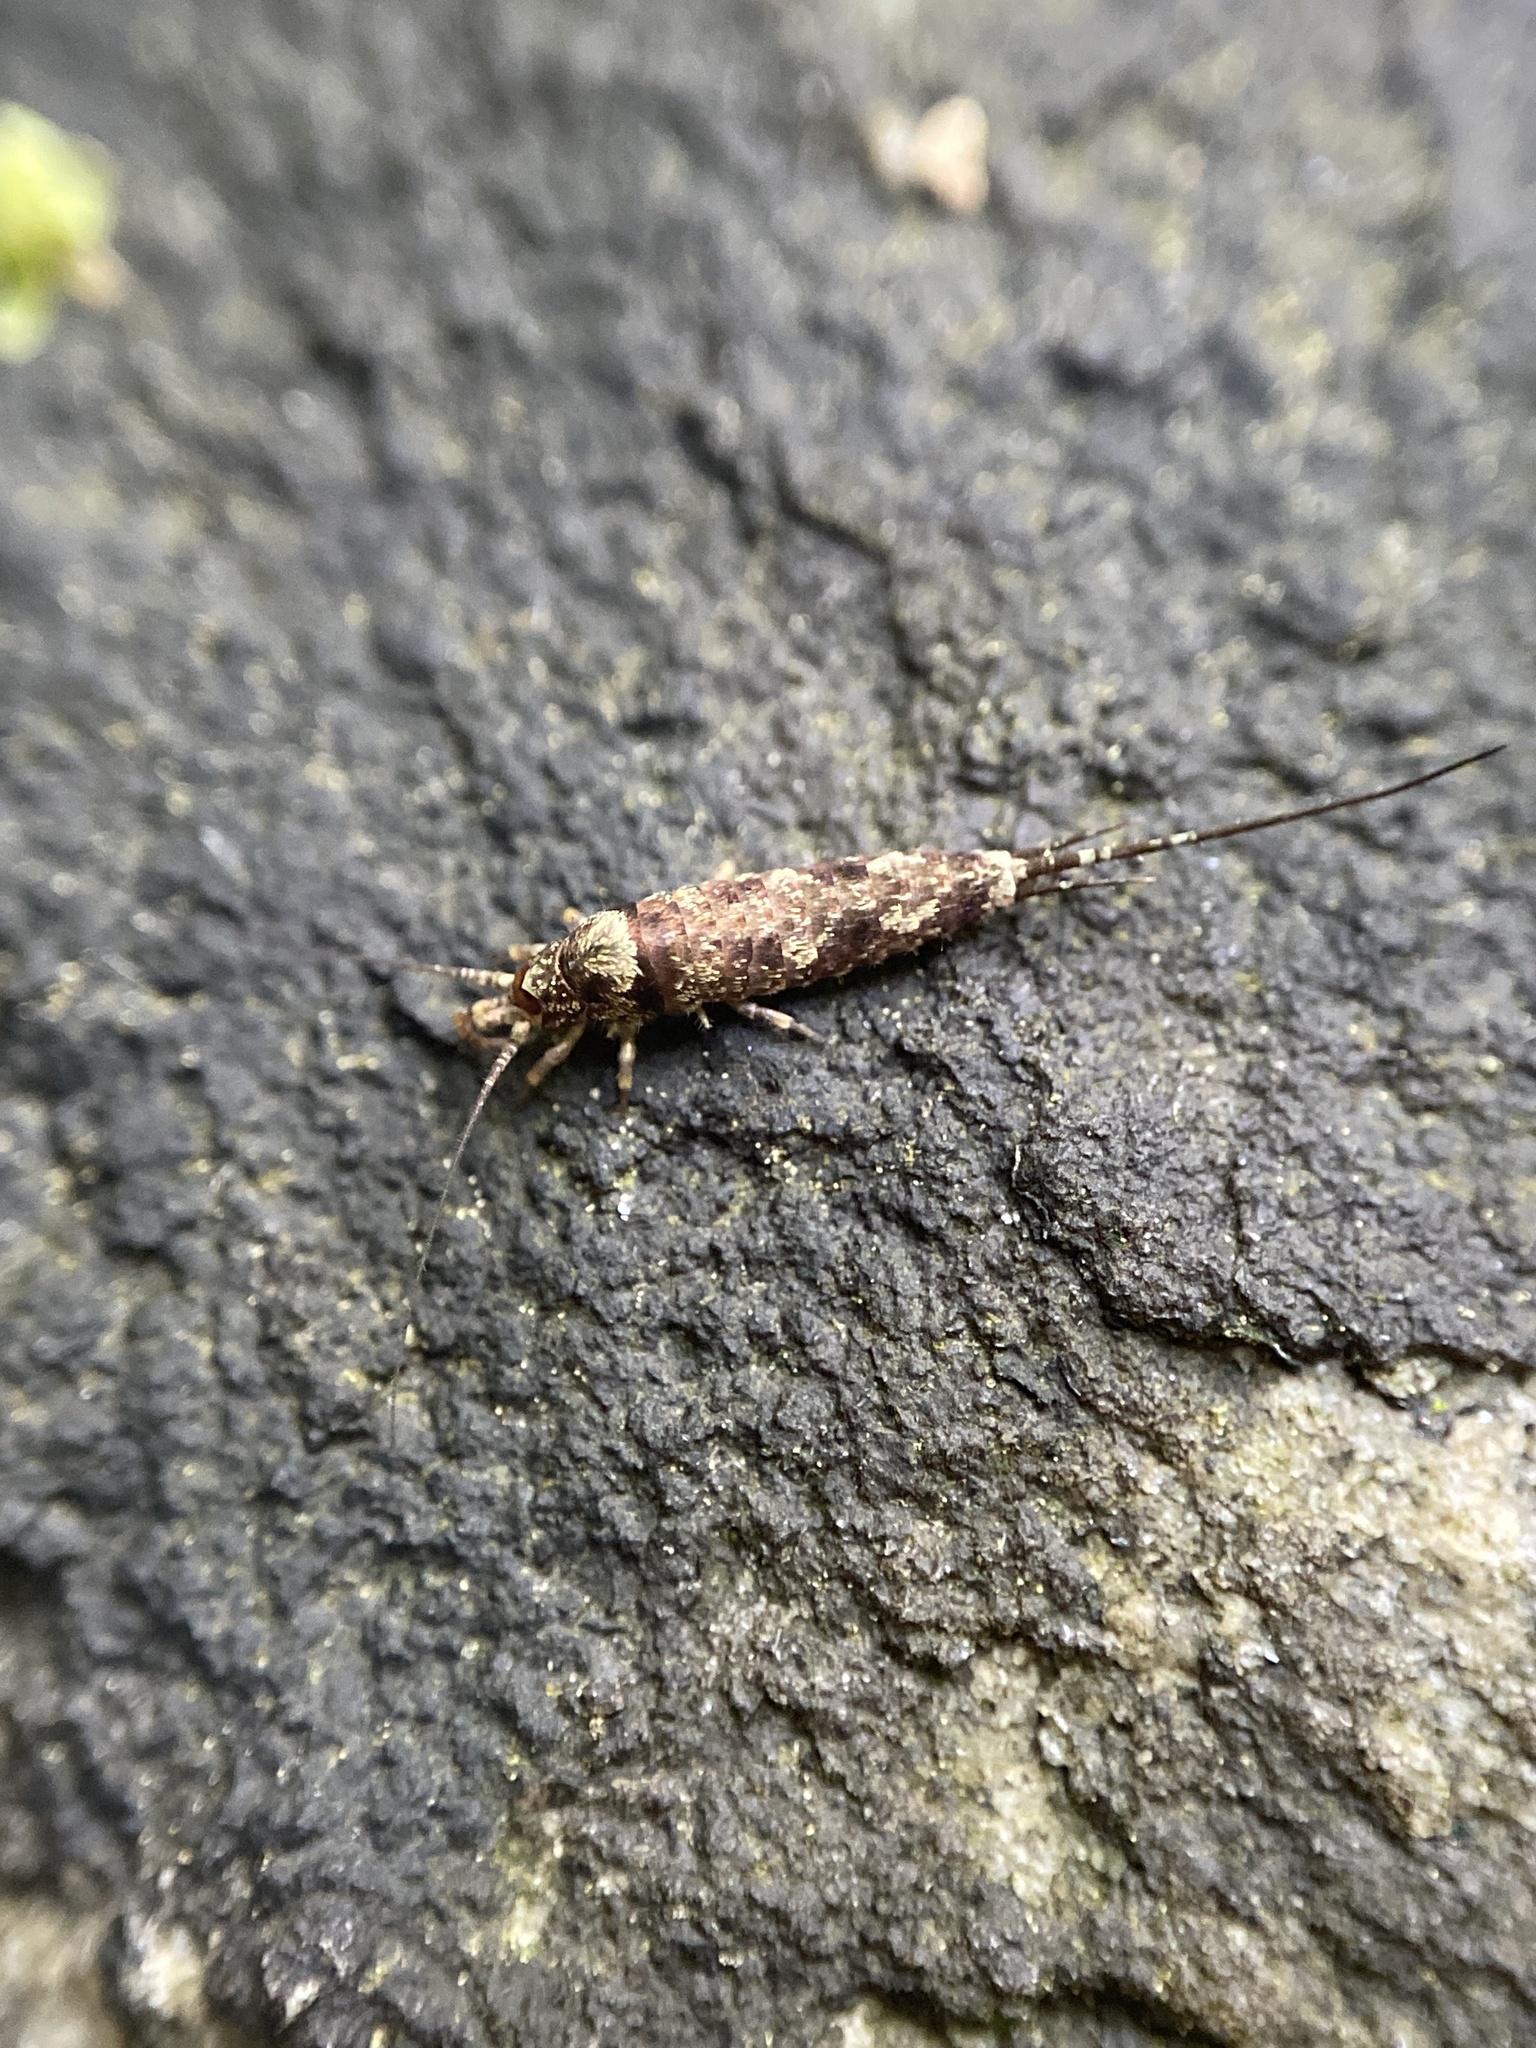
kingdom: Animalia
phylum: Arthropoda
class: Insecta
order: Archaeognatha
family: Machilidae
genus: Trigoniophthalmus
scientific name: Trigoniophthalmus alternatus
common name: Jumping bristletail
